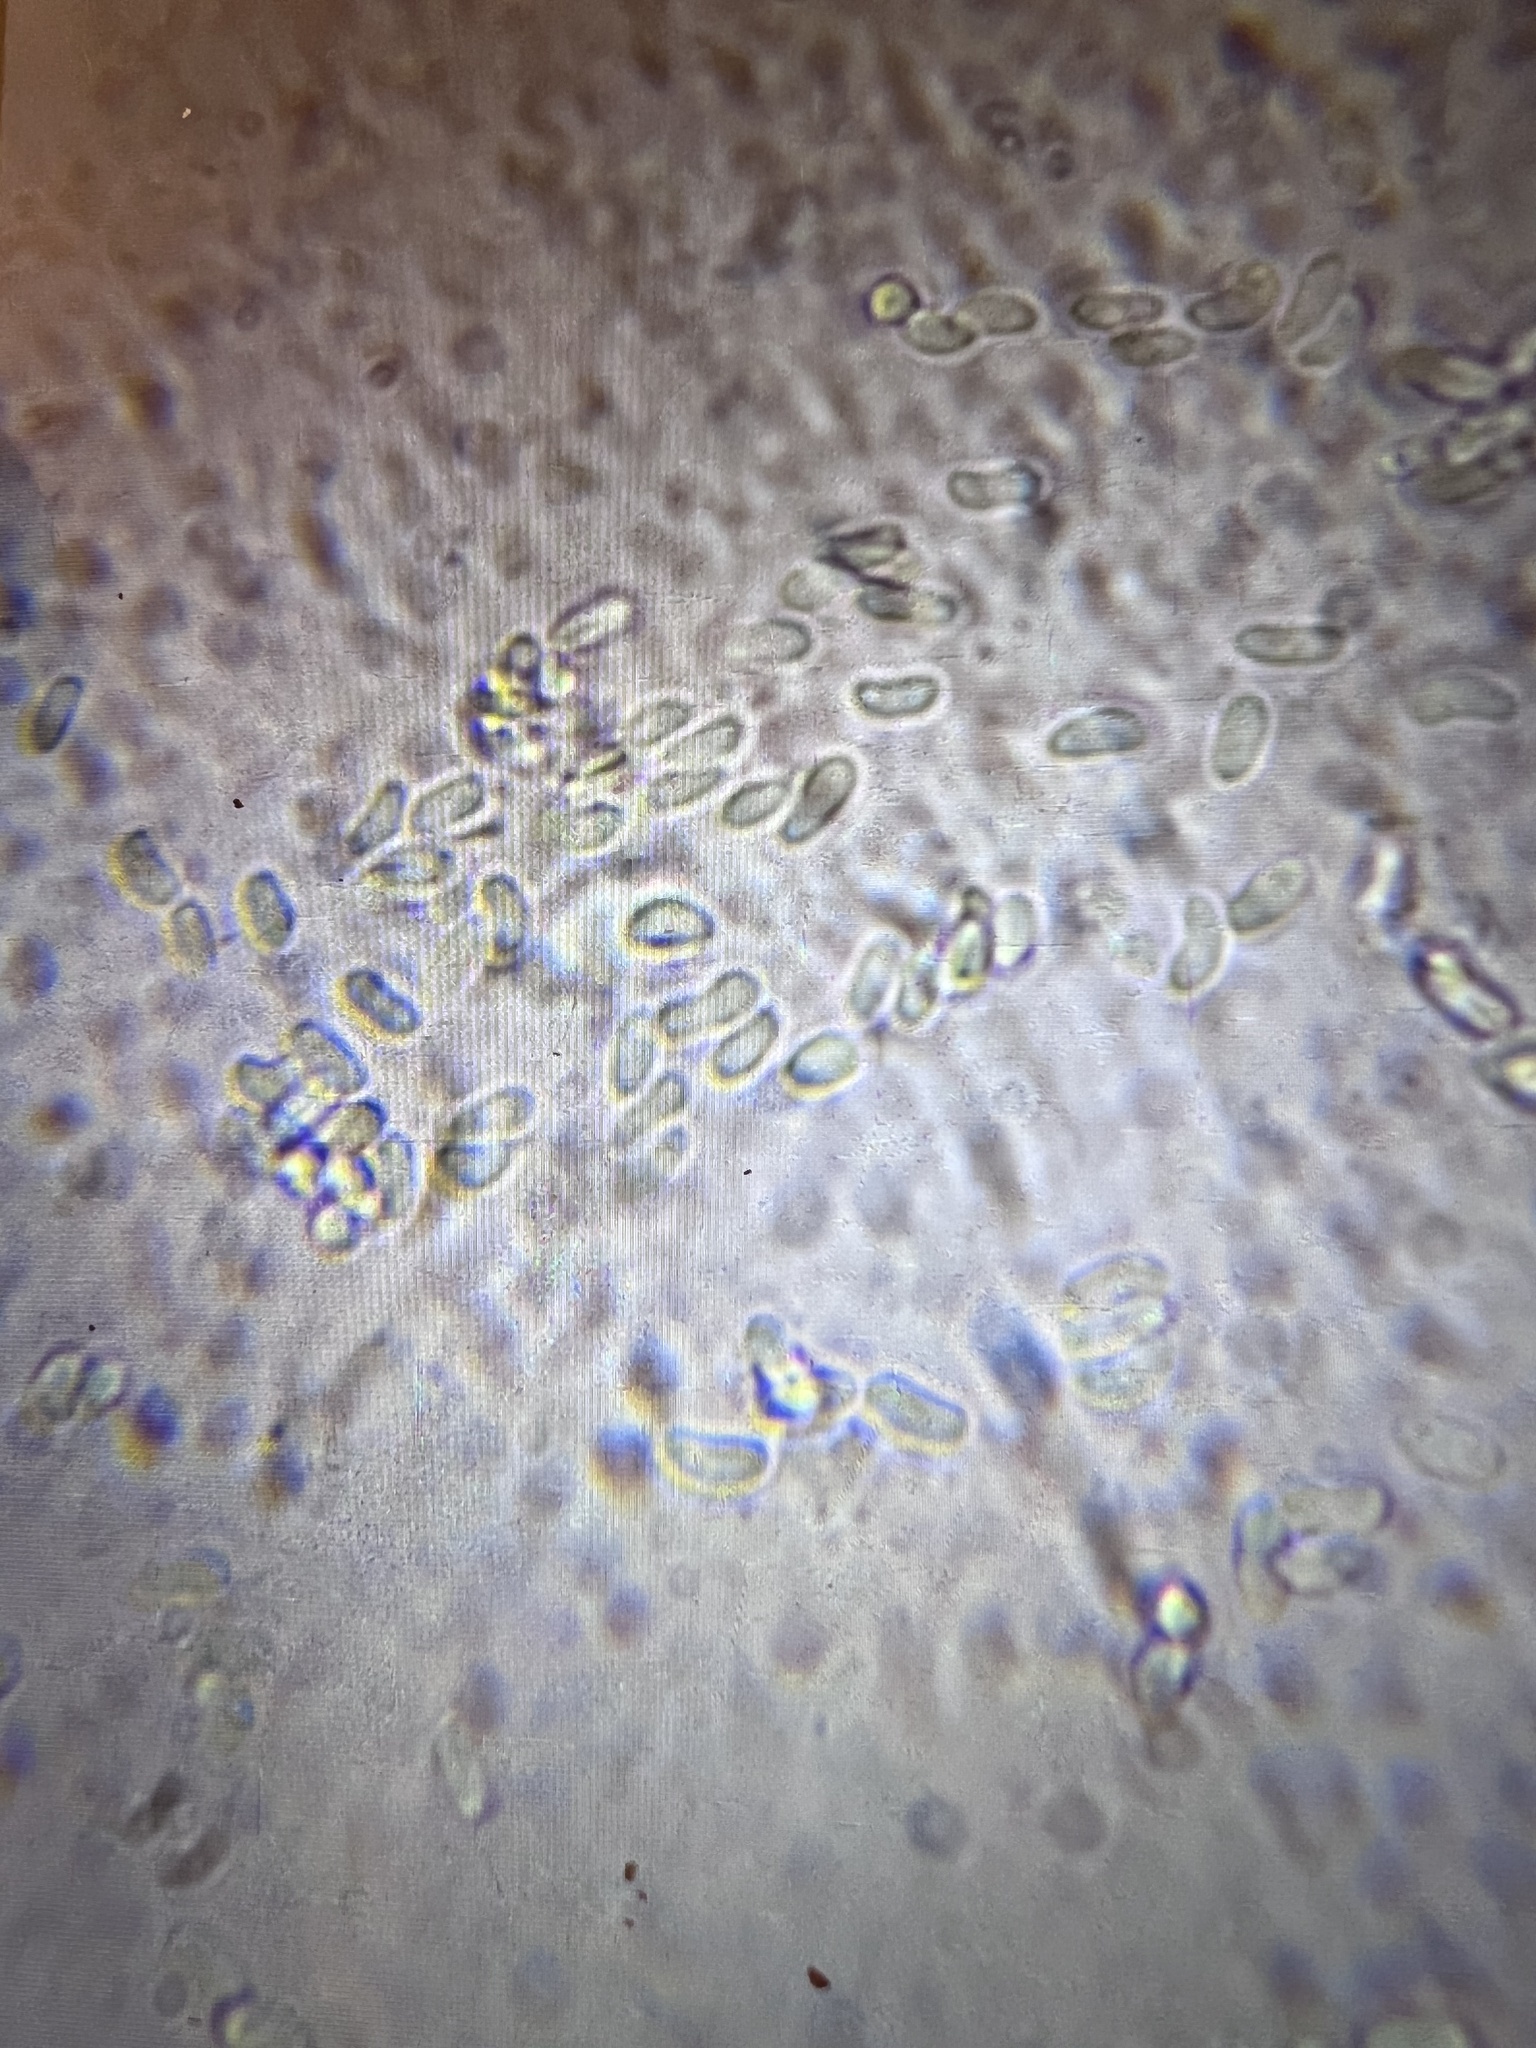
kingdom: Fungi
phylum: Ascomycota
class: Sordariomycetes
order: Hypocreales
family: Cordycipitaceae
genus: Cordyceps
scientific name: Cordyceps tenuipes
